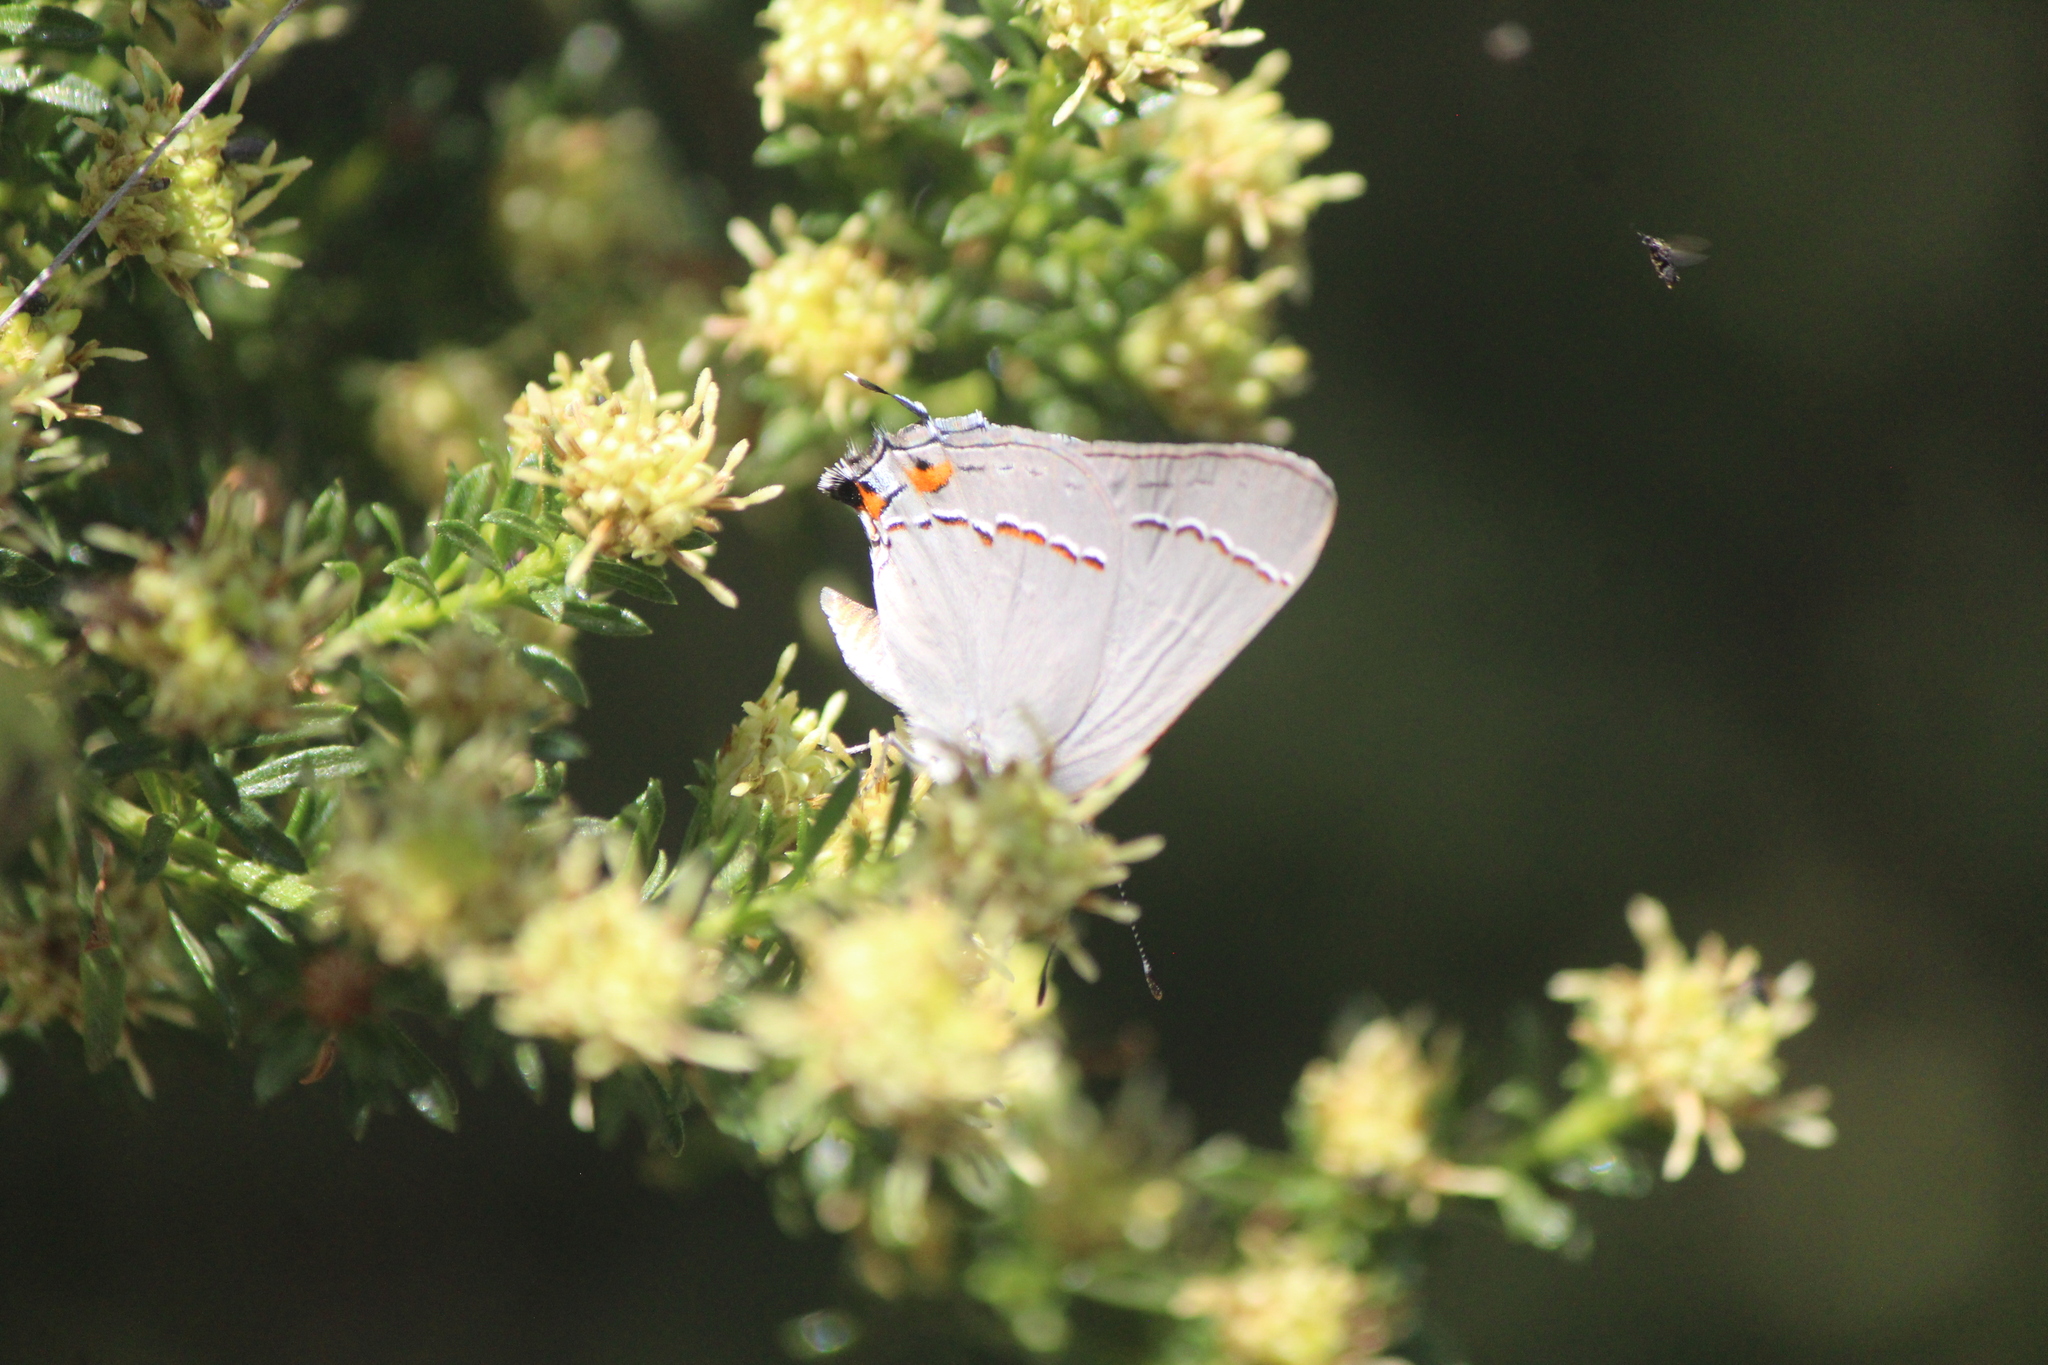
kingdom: Animalia
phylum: Arthropoda
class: Insecta
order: Lepidoptera
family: Lycaenidae
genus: Strymon
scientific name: Strymon melinus
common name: Gray hairstreak
